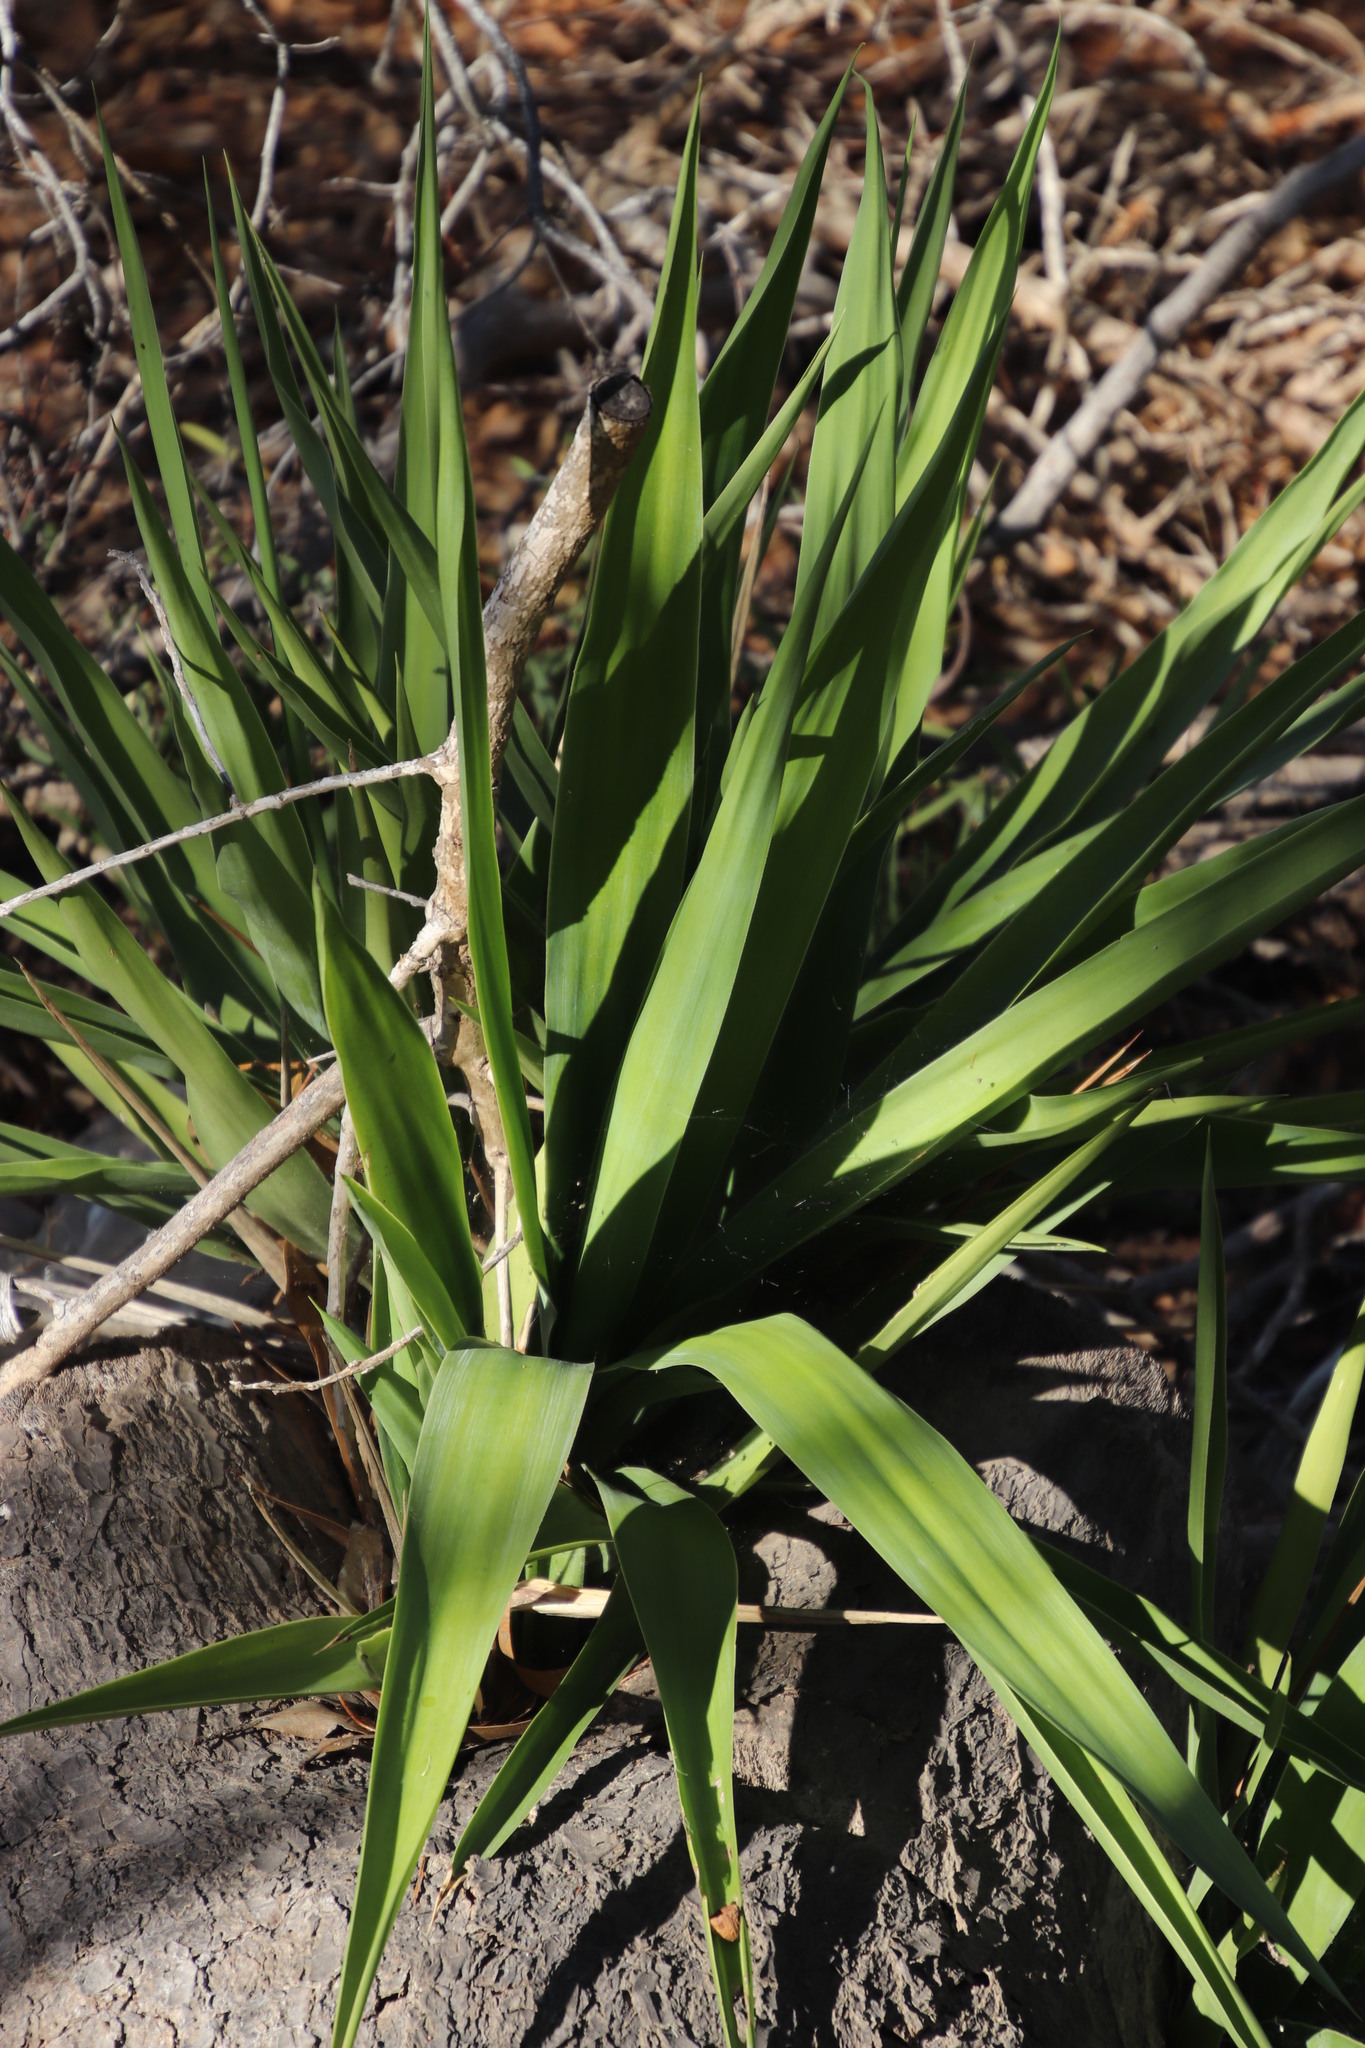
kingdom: Plantae
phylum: Tracheophyta
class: Liliopsida
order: Asparagales
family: Asparagaceae
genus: Yucca
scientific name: Yucca gigantea
